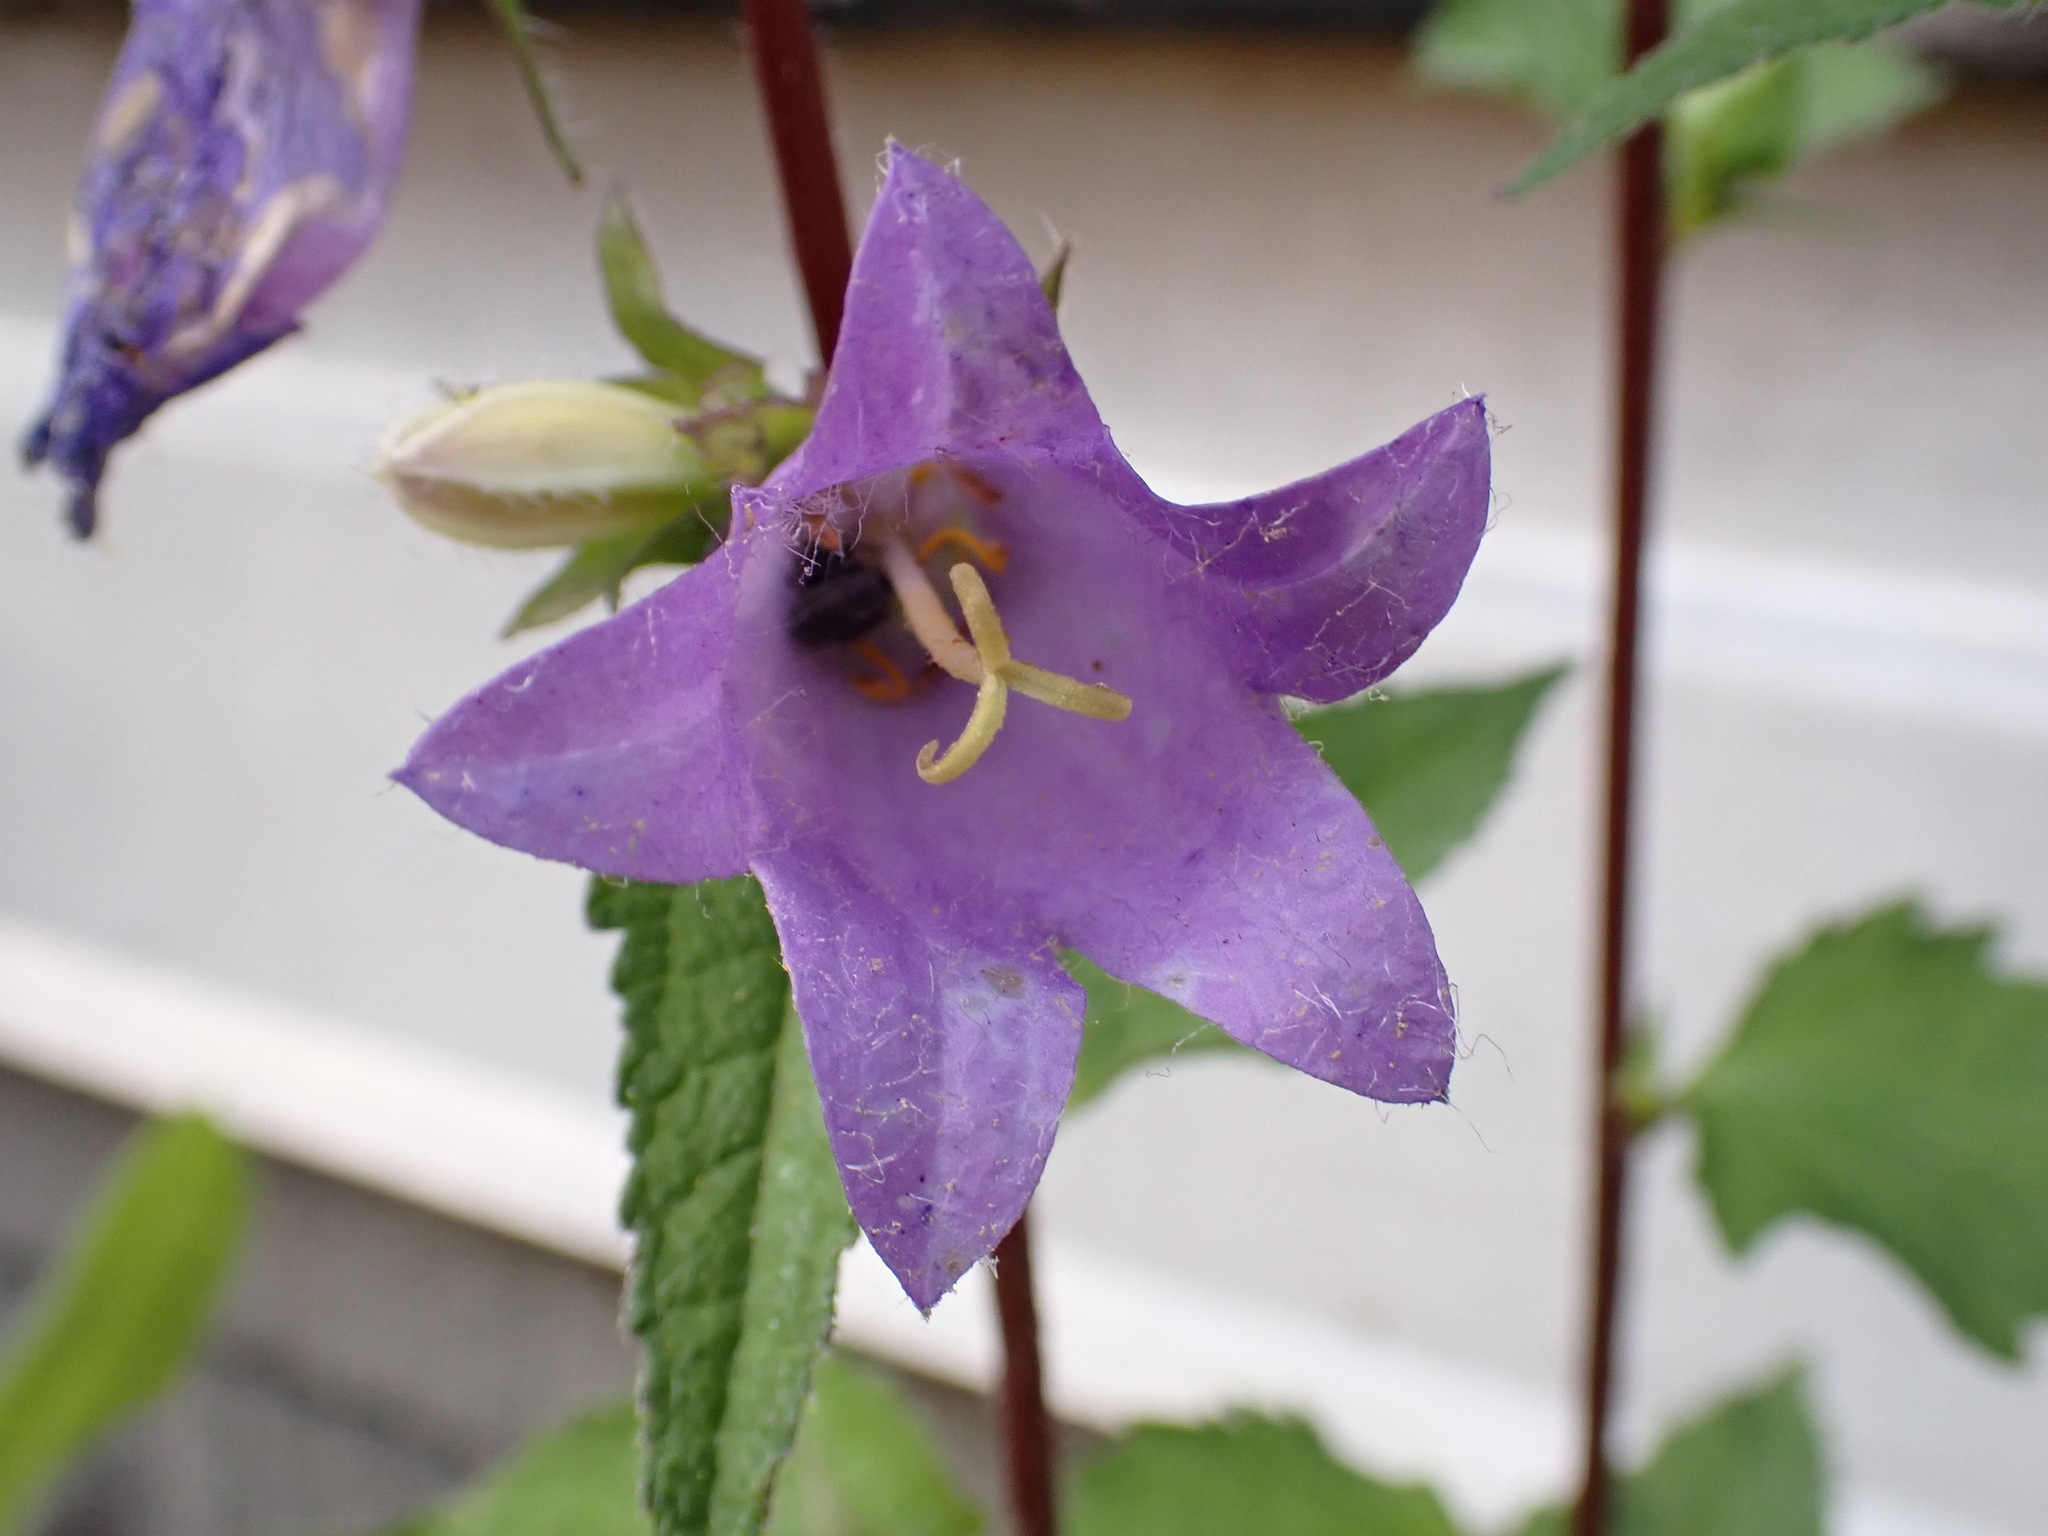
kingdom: Plantae
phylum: Tracheophyta
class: Magnoliopsida
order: Asterales
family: Campanulaceae
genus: Campanula
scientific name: Campanula trachelium
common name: Nettle-leaved bellflower
